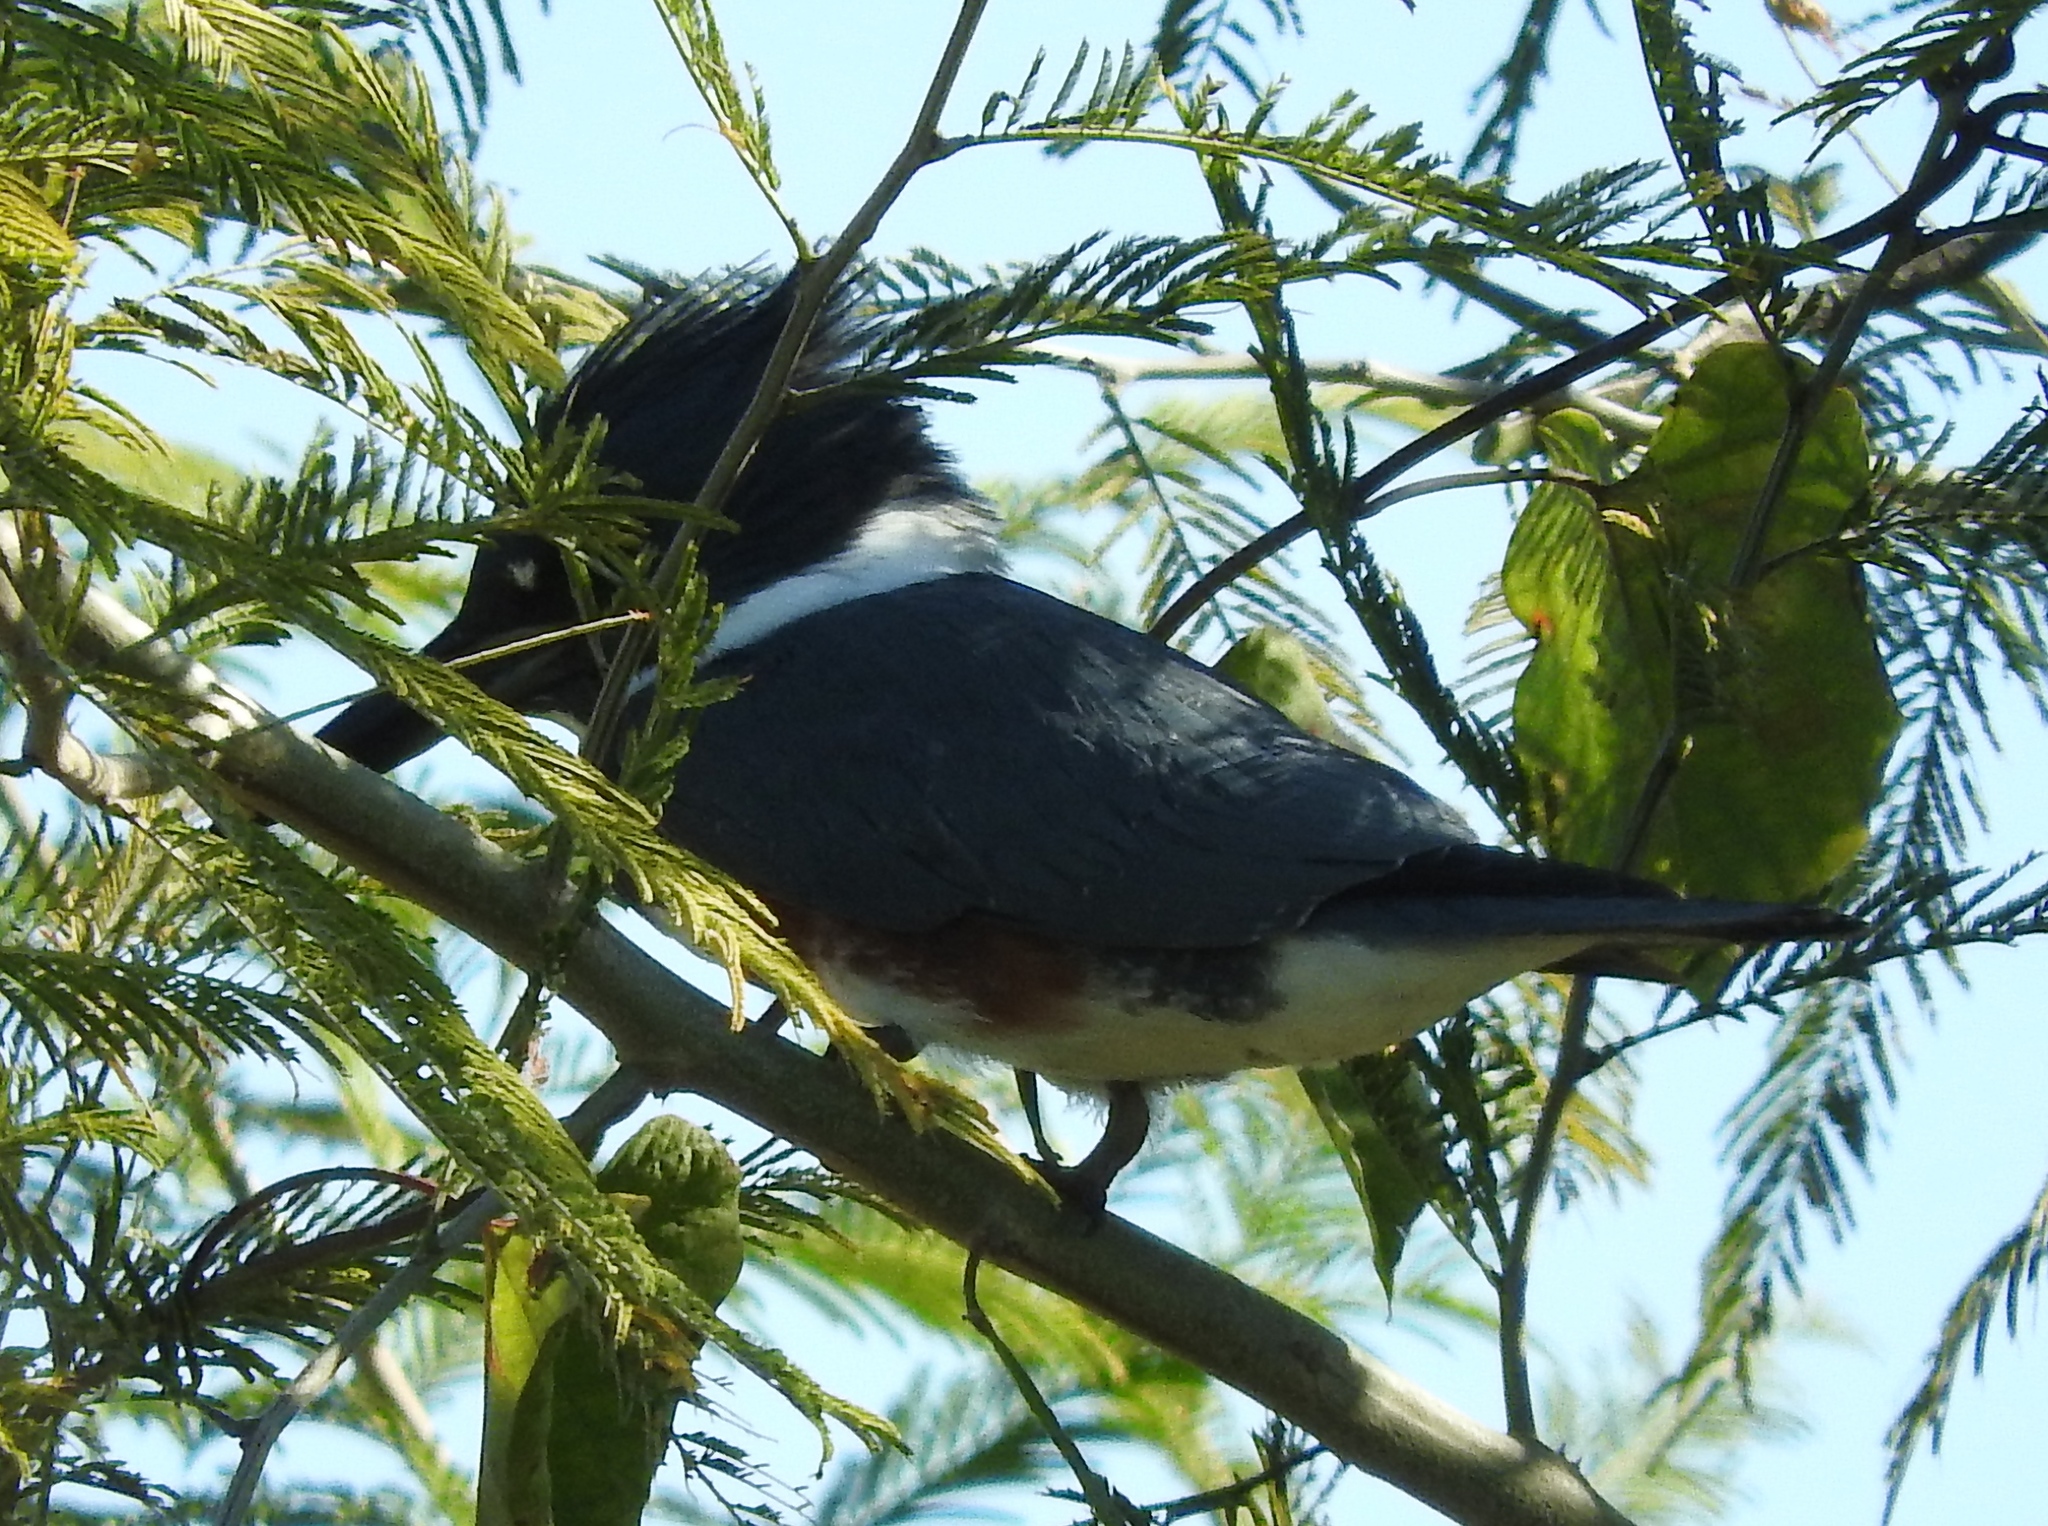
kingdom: Animalia
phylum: Chordata
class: Aves
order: Coraciiformes
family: Alcedinidae
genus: Megaceryle
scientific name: Megaceryle alcyon
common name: Belted kingfisher
